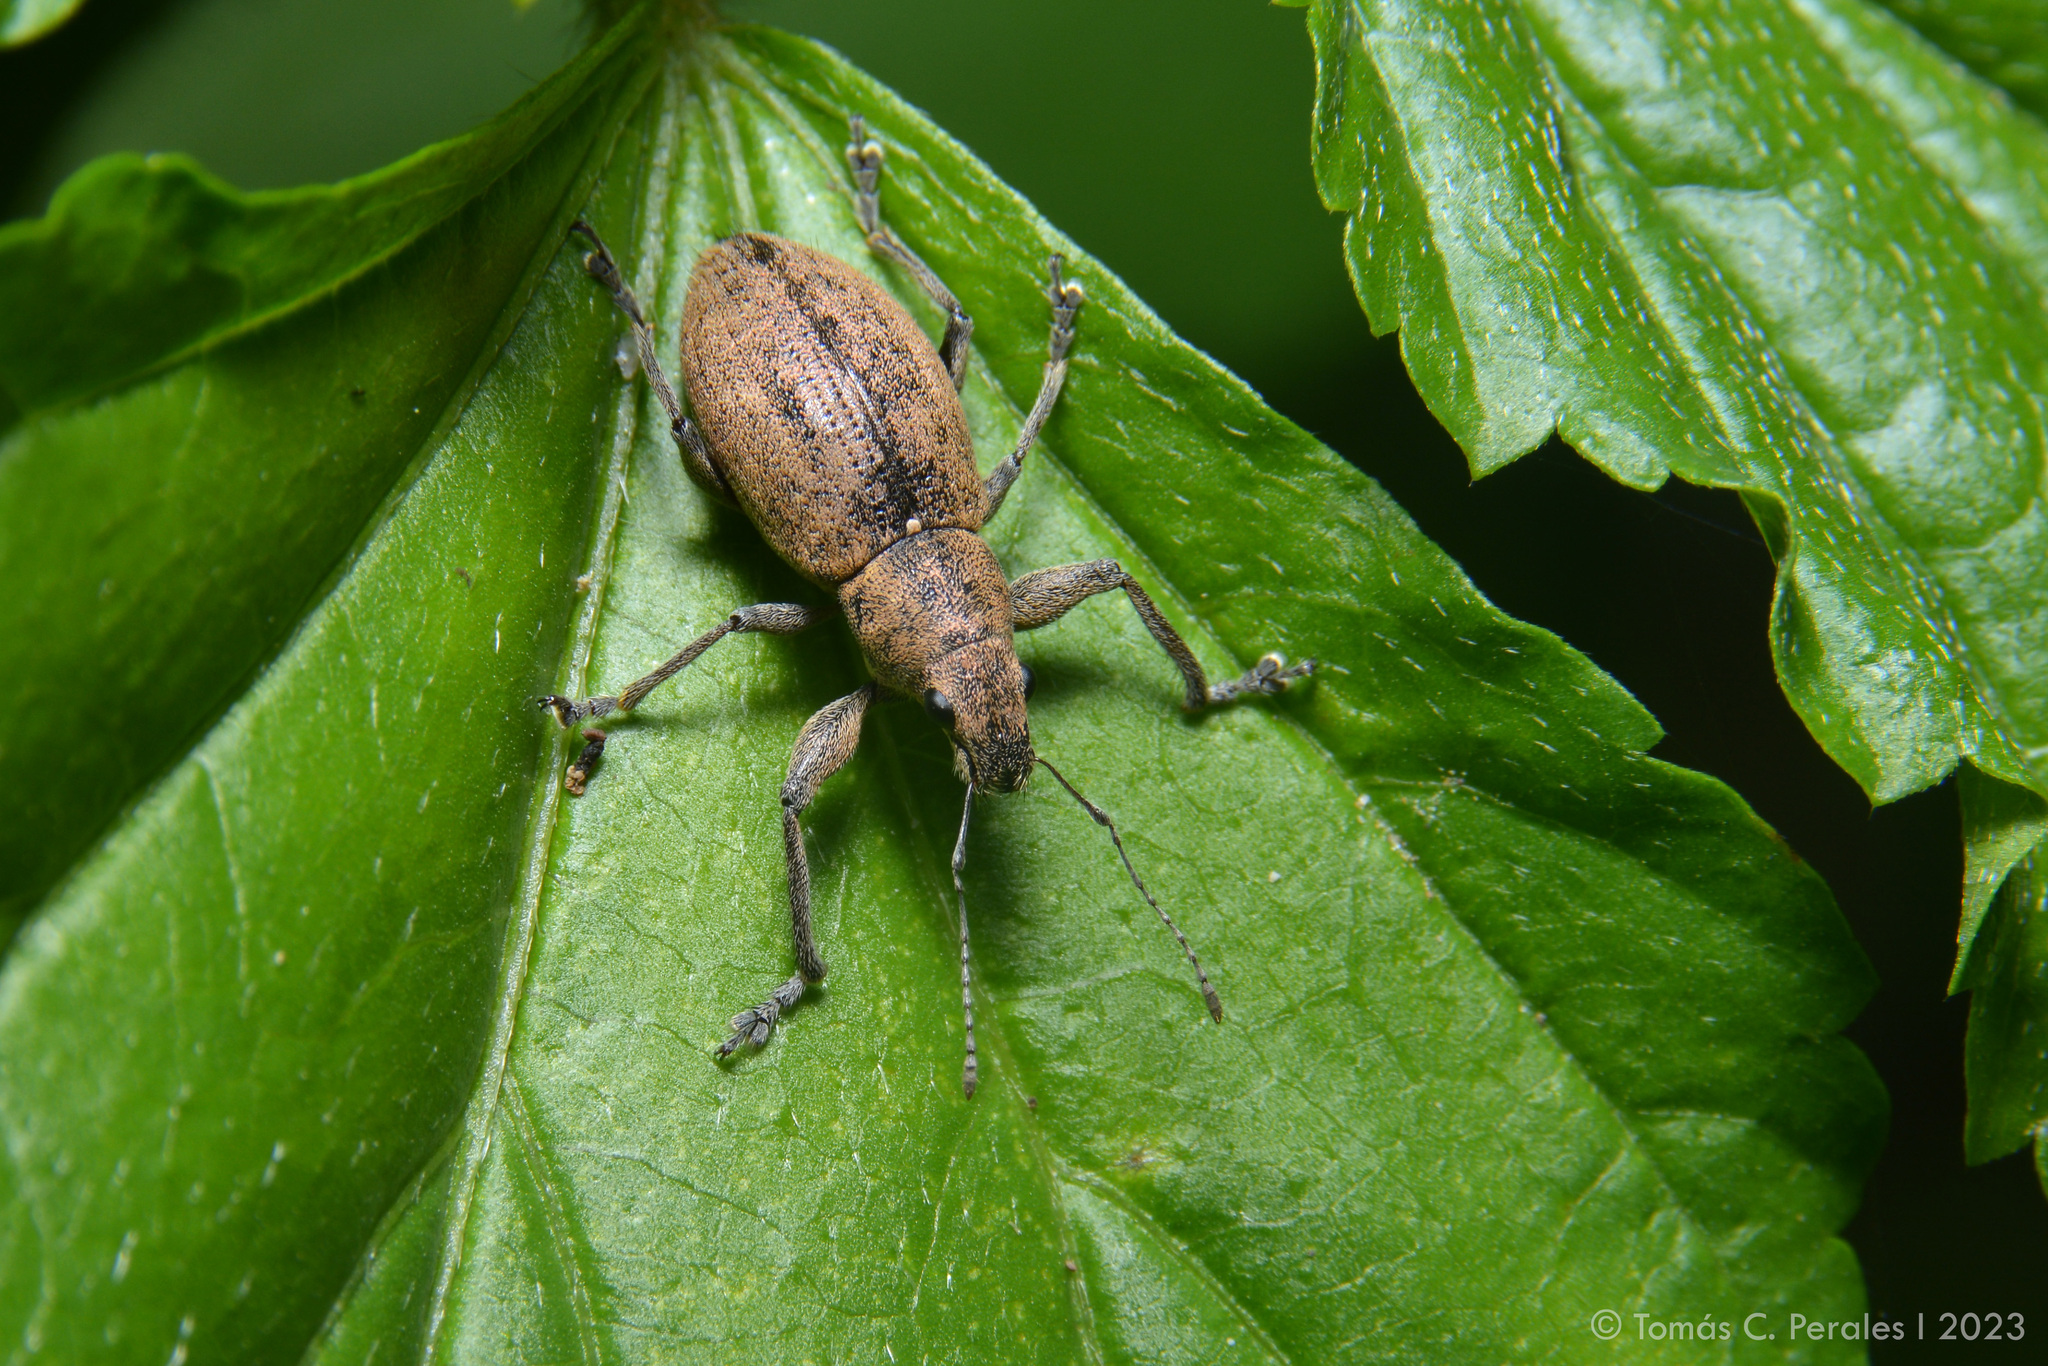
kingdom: Animalia
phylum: Arthropoda
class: Insecta
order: Coleoptera
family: Curculionidae
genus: Naupactus
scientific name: Naupactus versatilis
